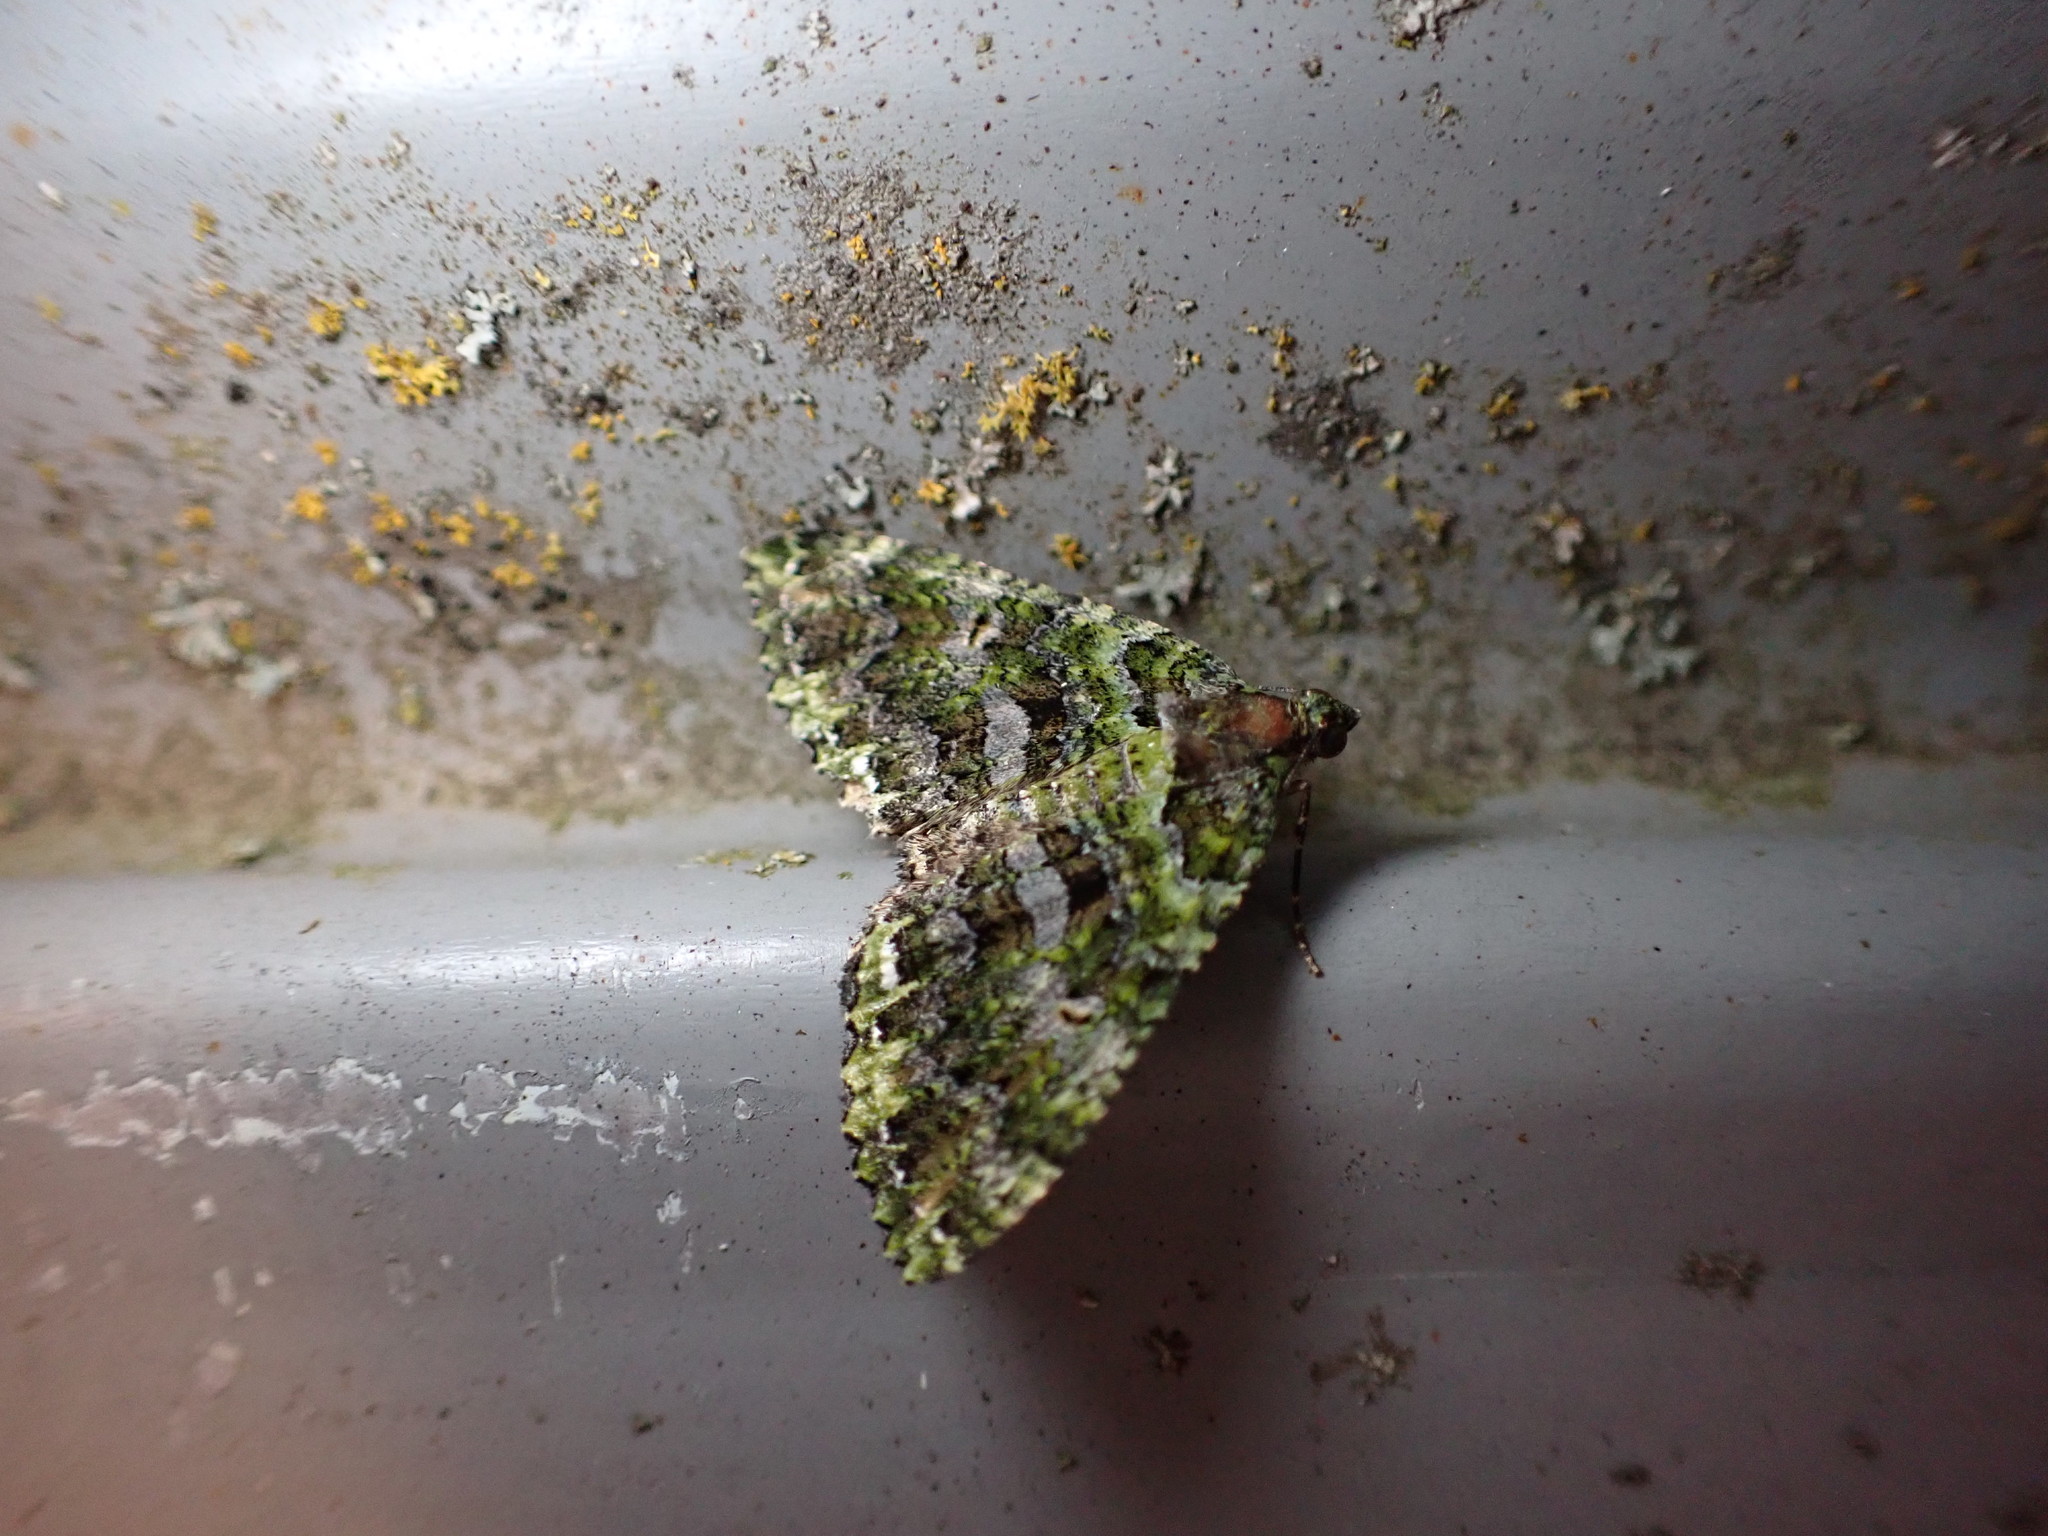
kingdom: Animalia
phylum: Arthropoda
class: Insecta
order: Lepidoptera
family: Geometridae
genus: Austrocidaria
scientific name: Austrocidaria similata
